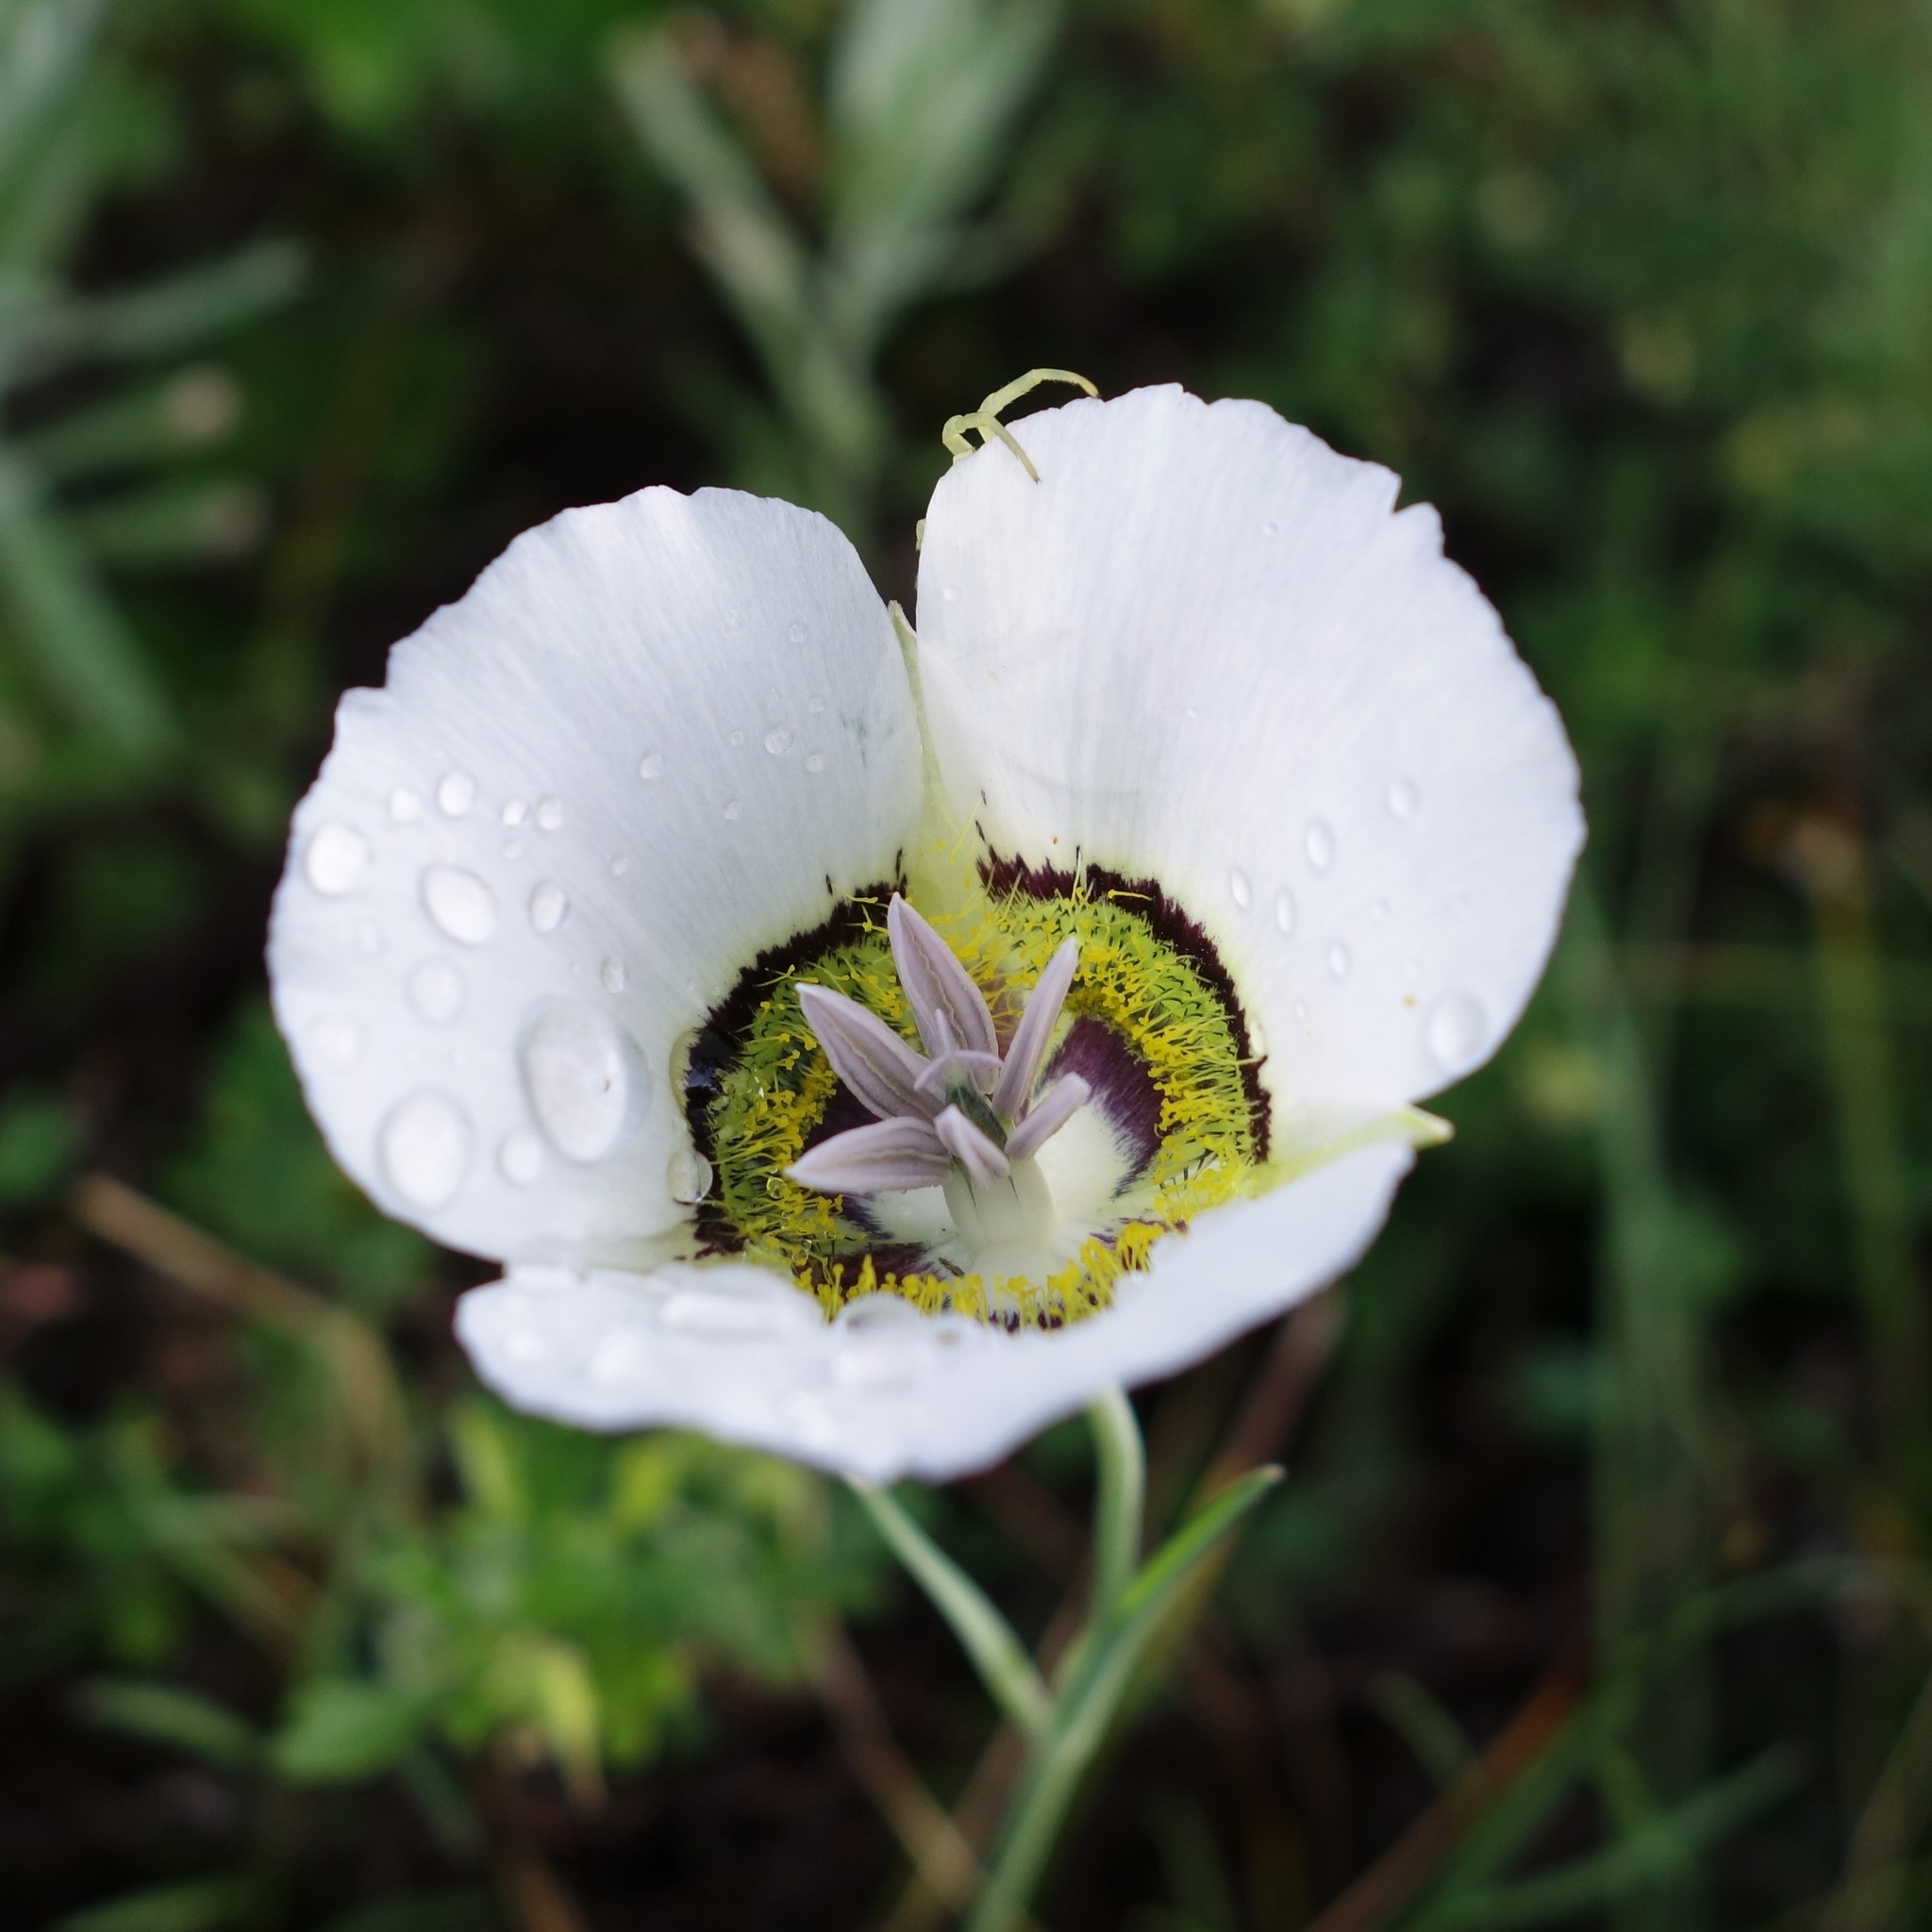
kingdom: Plantae
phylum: Tracheophyta
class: Liliopsida
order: Liliales
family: Liliaceae
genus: Calochortus
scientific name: Calochortus gunnisonii
